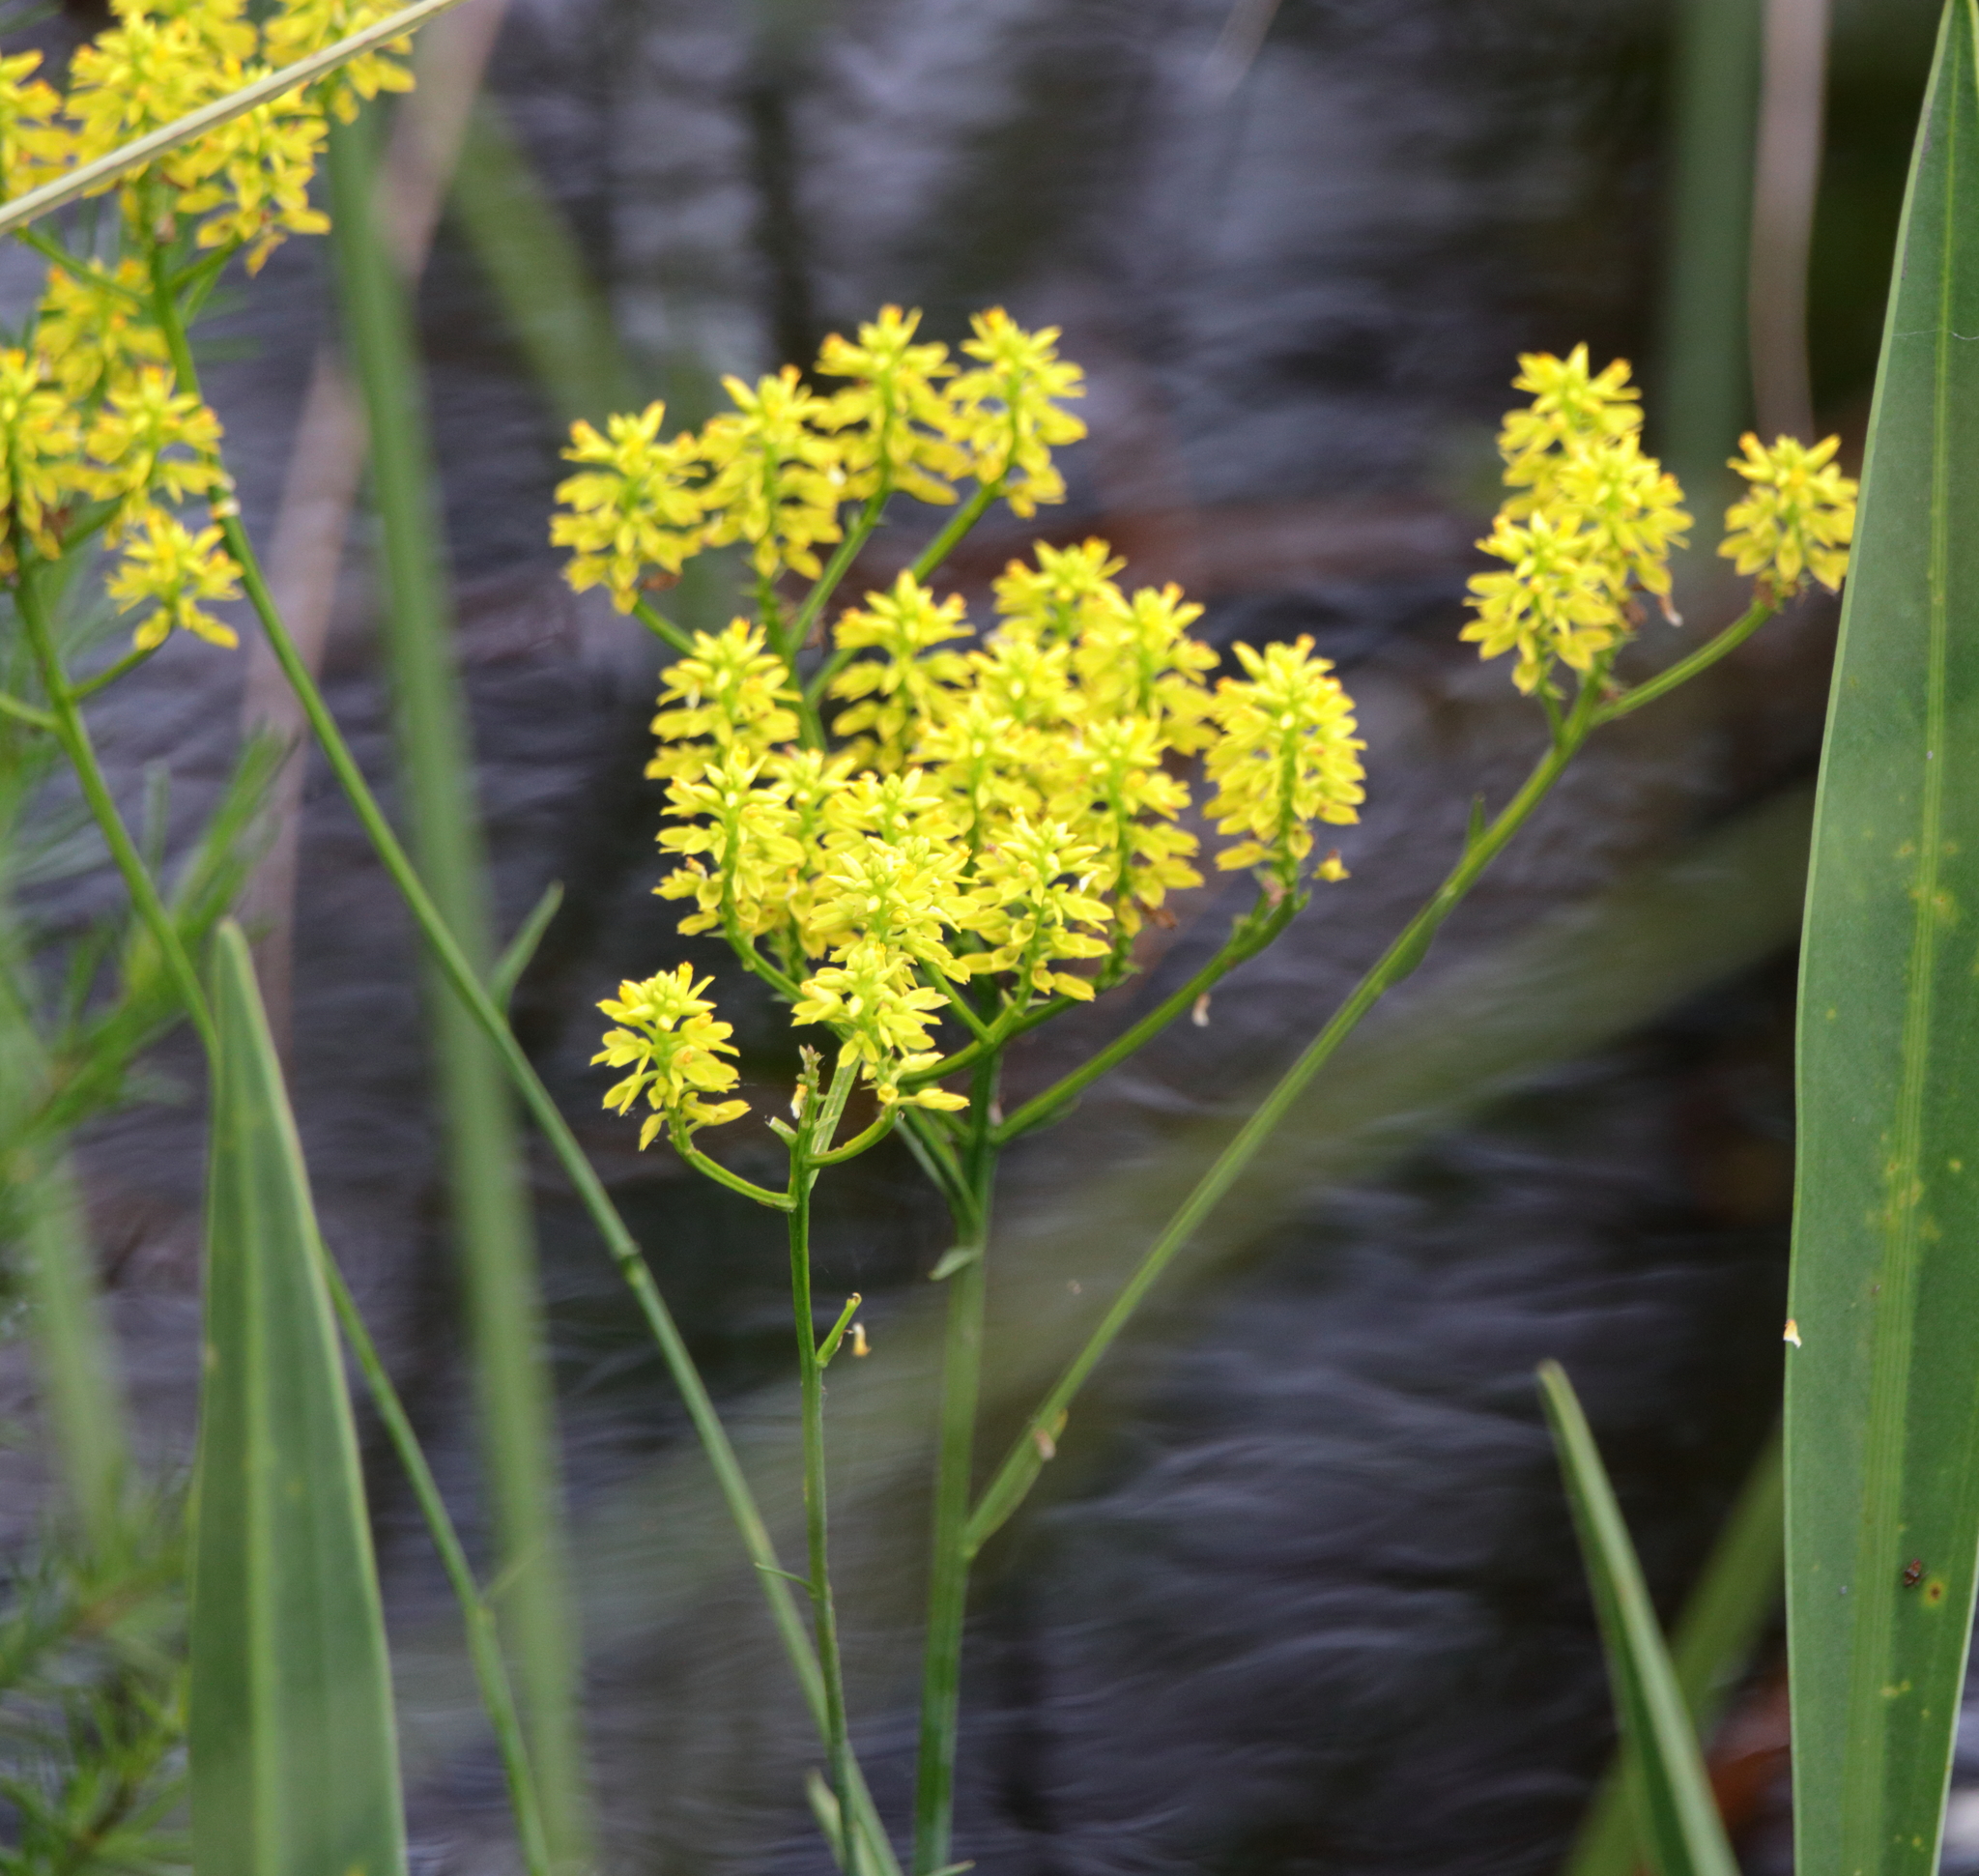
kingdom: Plantae
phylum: Tracheophyta
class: Magnoliopsida
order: Fabales
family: Polygalaceae
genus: Polygala
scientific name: Polygala cymosa
